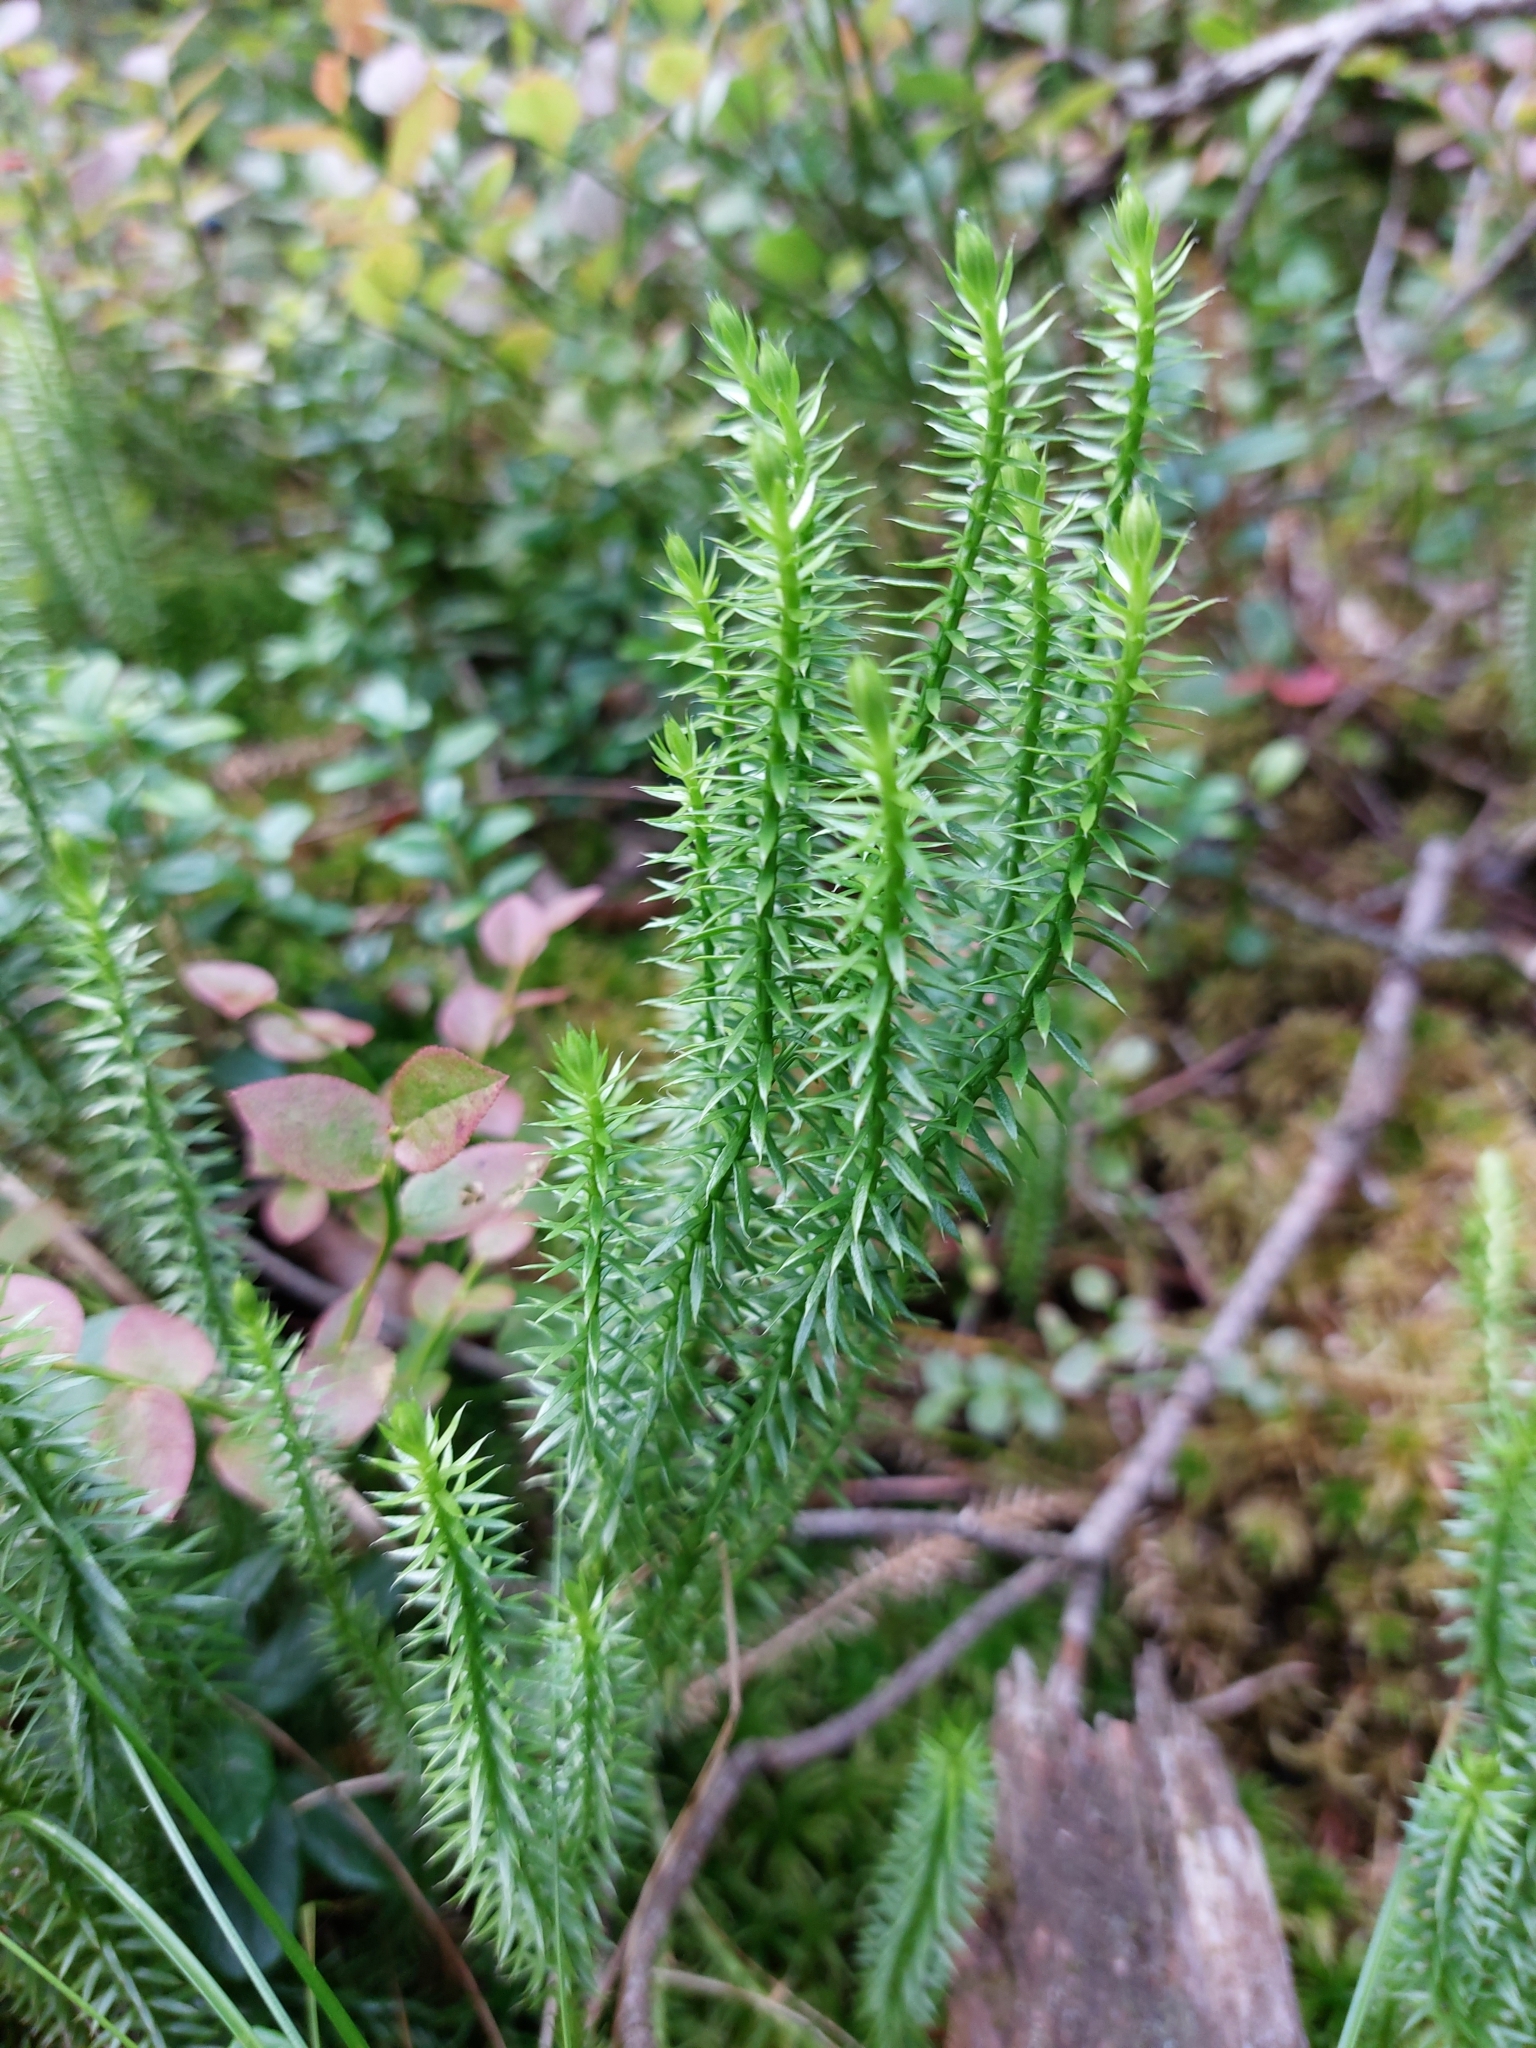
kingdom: Plantae
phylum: Tracheophyta
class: Lycopodiopsida
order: Lycopodiales
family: Lycopodiaceae
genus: Spinulum
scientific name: Spinulum annotinum
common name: Interrupted club-moss
